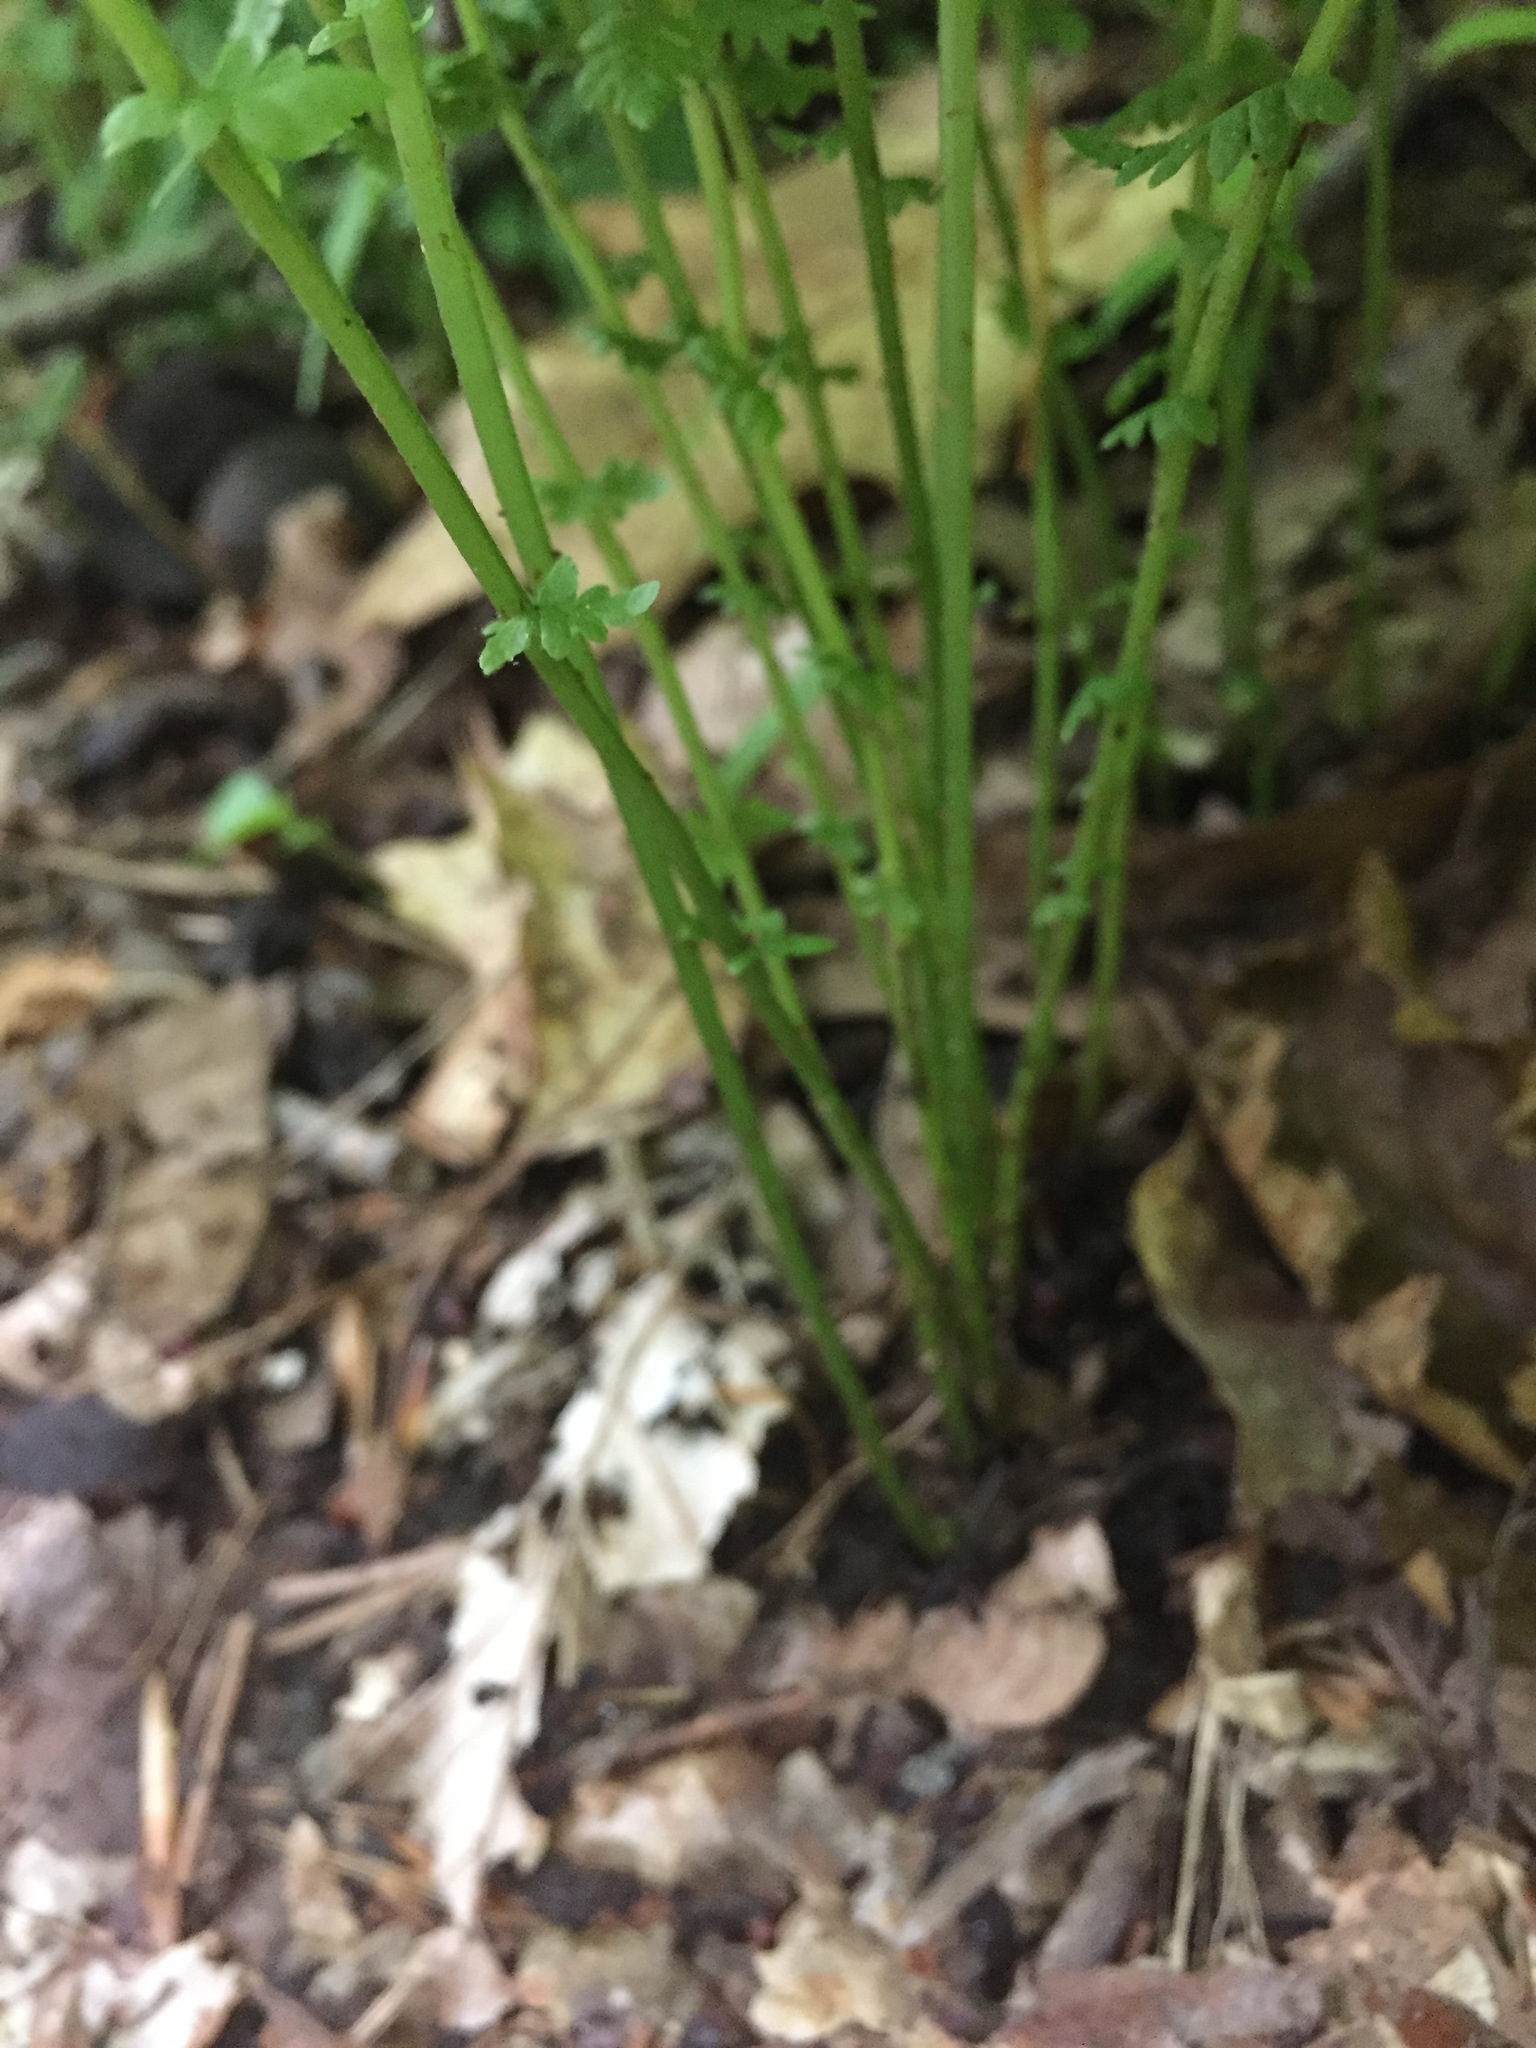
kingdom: Plantae
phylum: Tracheophyta
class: Polypodiopsida
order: Polypodiales
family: Thelypteridaceae
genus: Amauropelta
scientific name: Amauropelta noveboracensis
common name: New york fern
